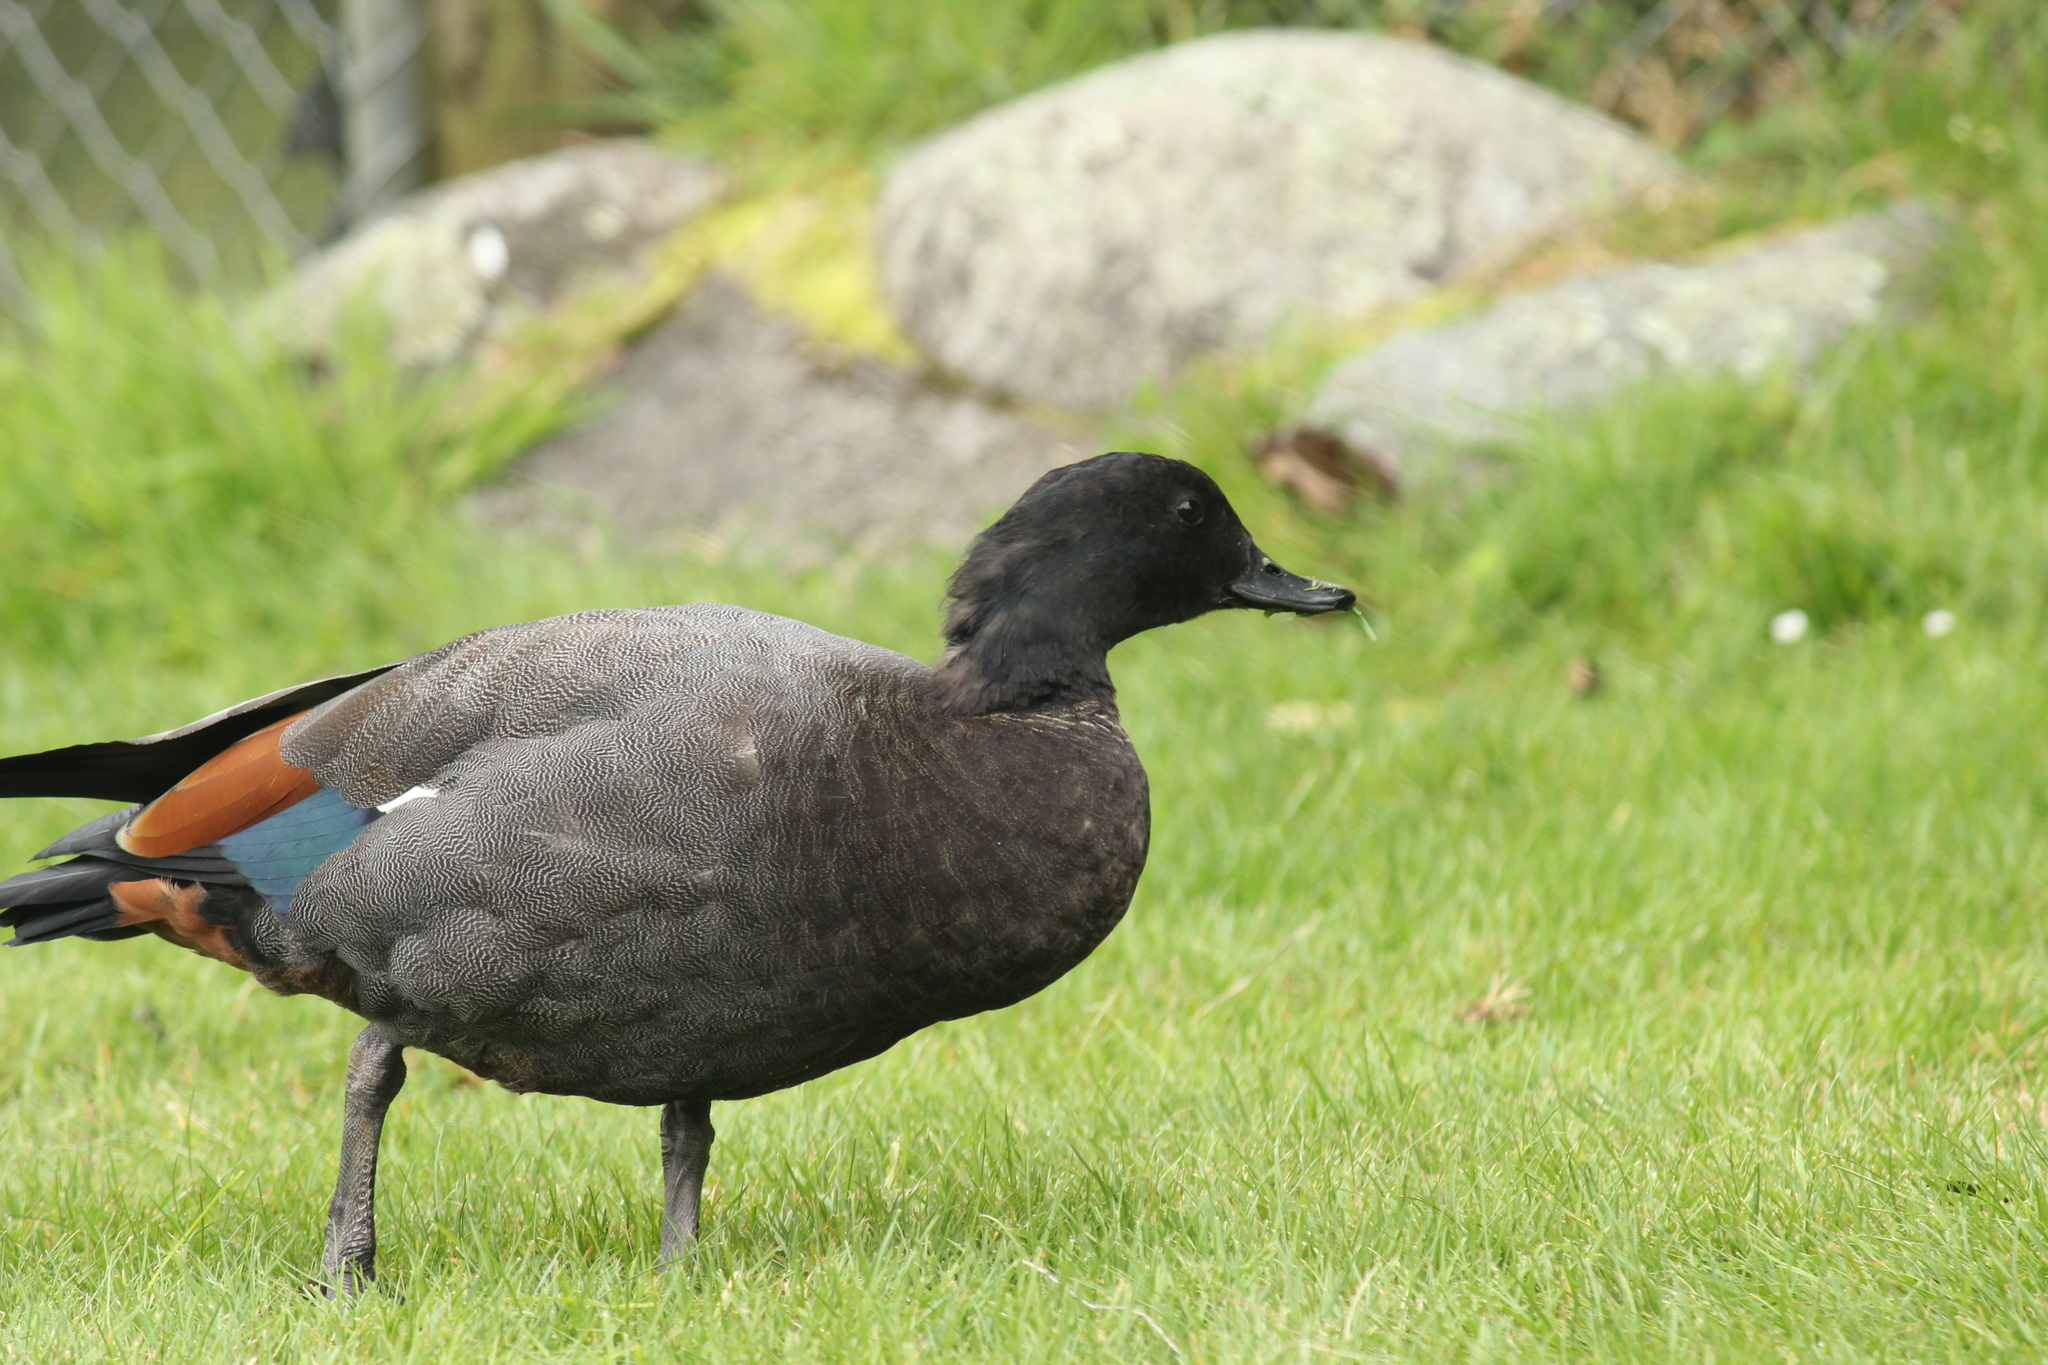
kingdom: Animalia
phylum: Chordata
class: Aves
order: Anseriformes
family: Anatidae
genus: Tadorna
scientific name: Tadorna variegata
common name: Paradise shelduck
